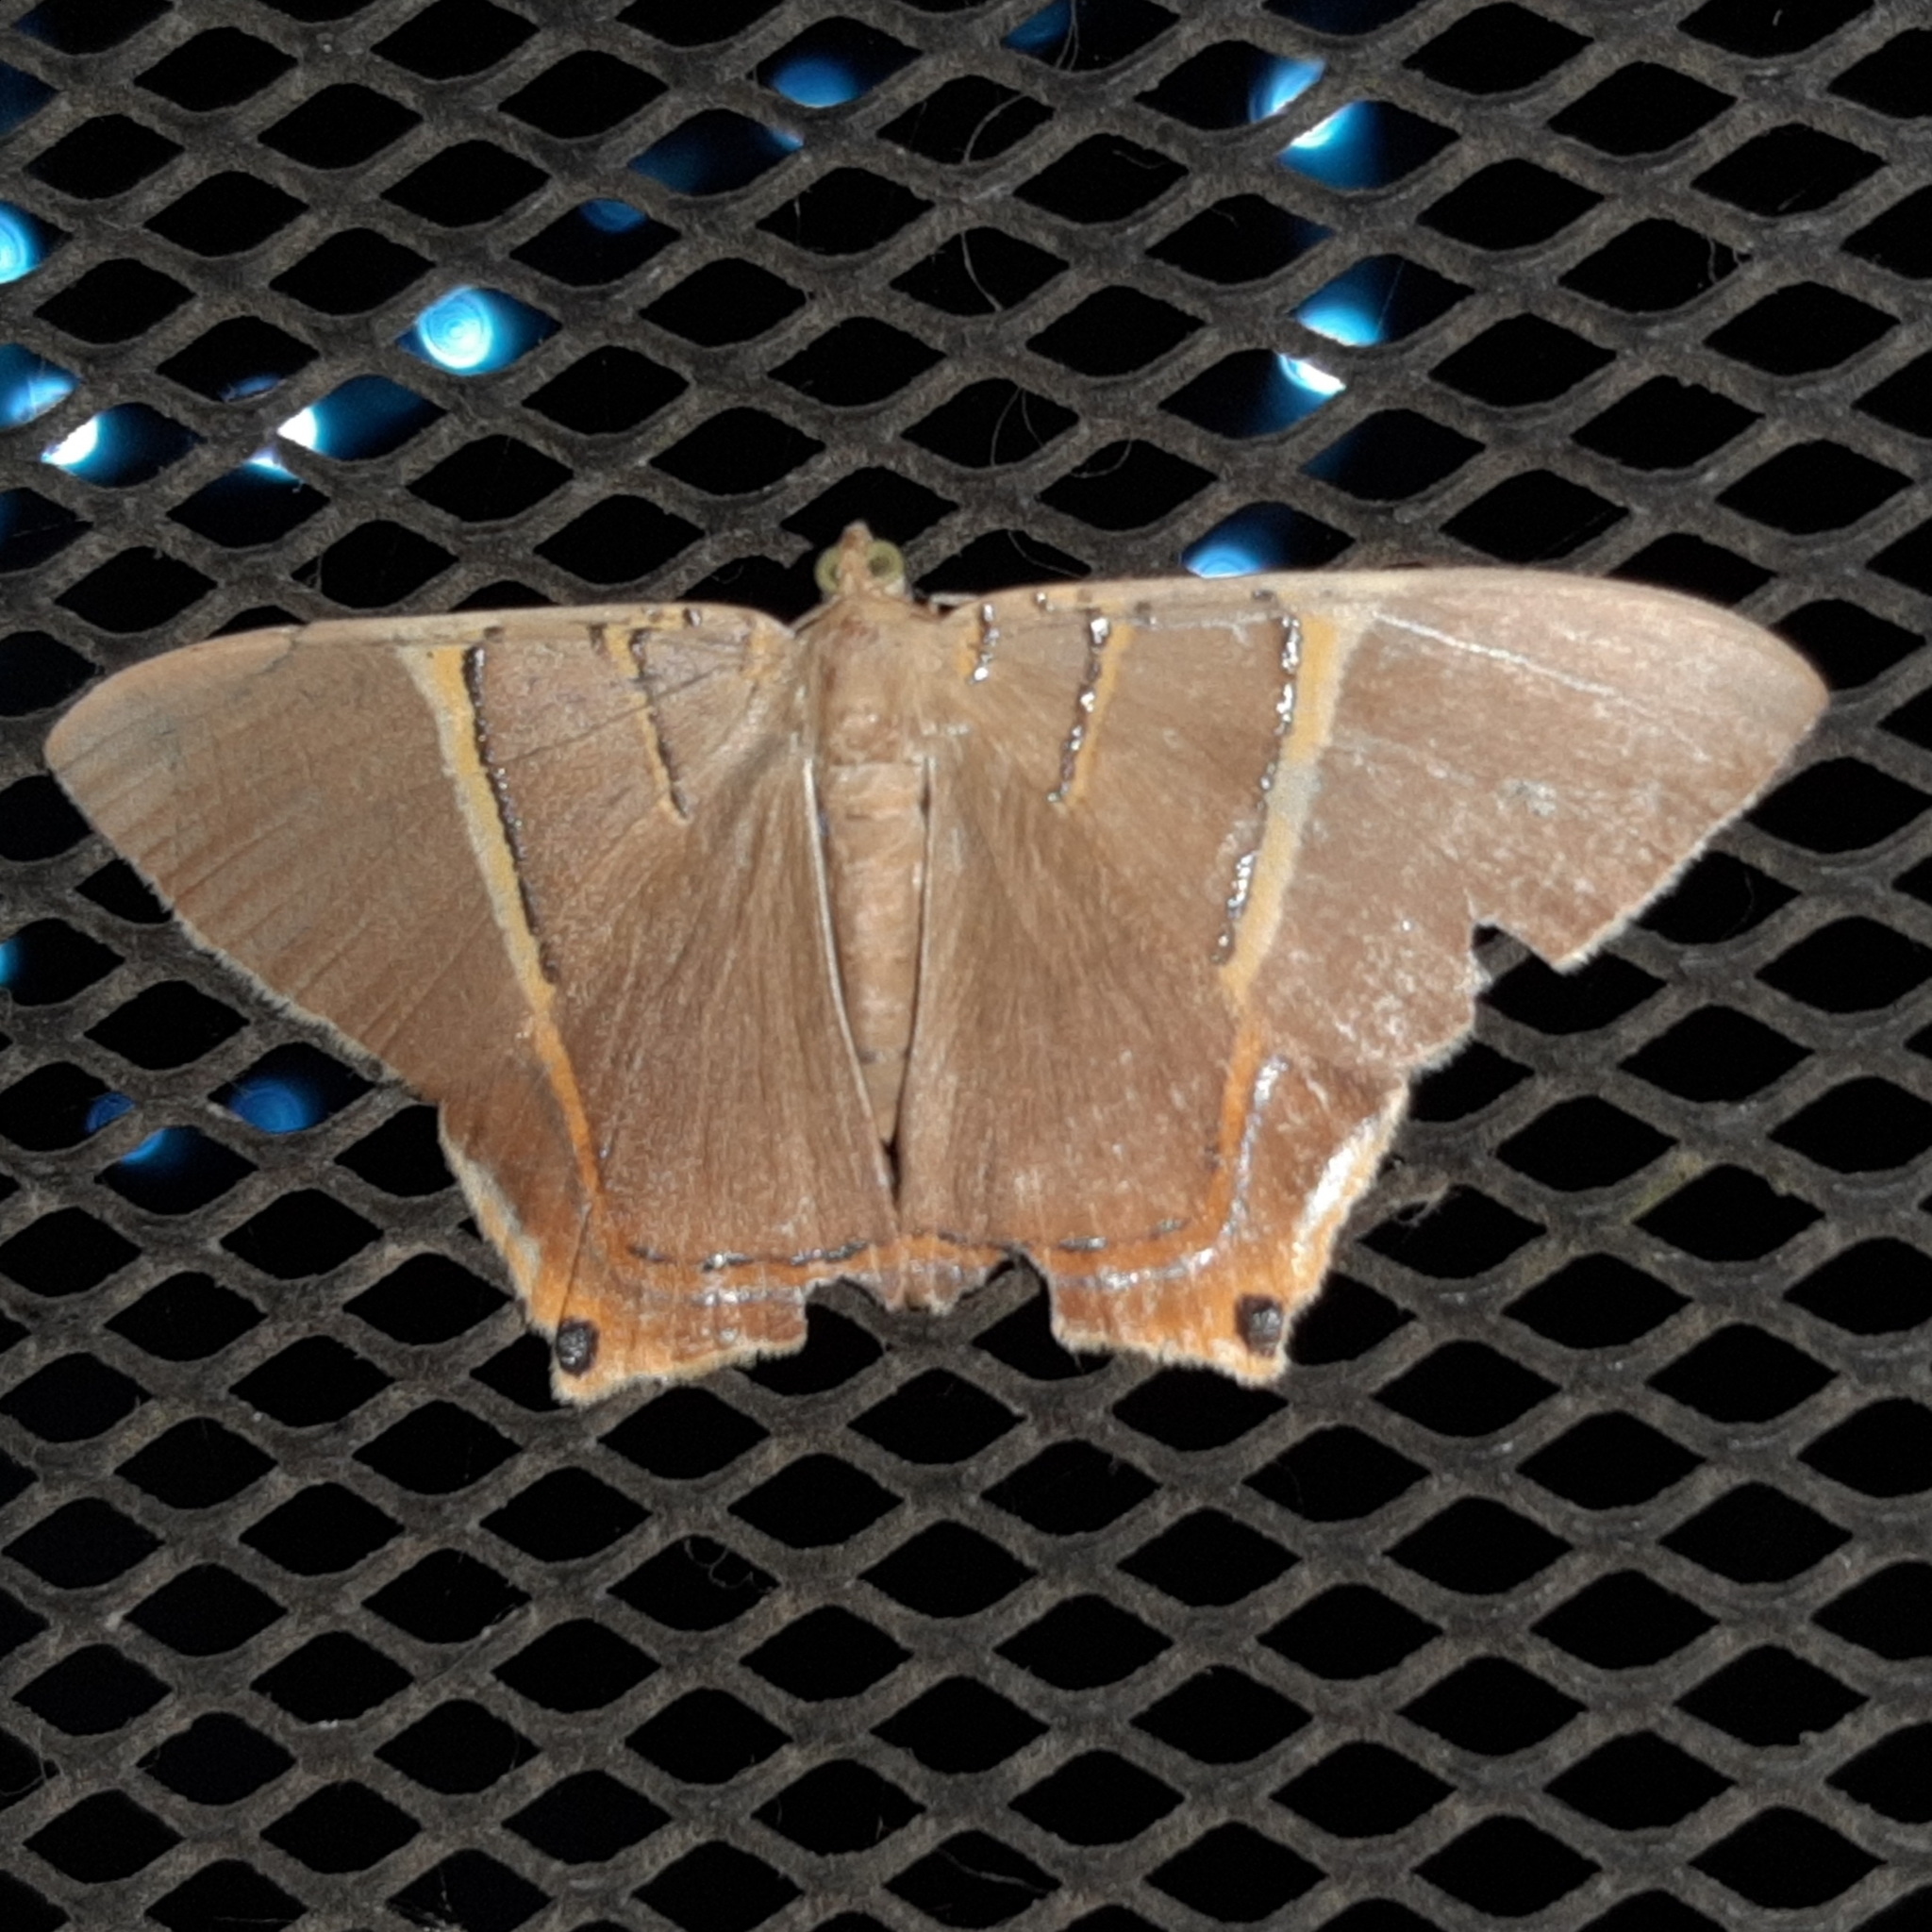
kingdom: Animalia
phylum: Arthropoda
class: Insecta
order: Lepidoptera
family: Geometridae
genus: Phrygionis
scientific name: Phrygionis polita
